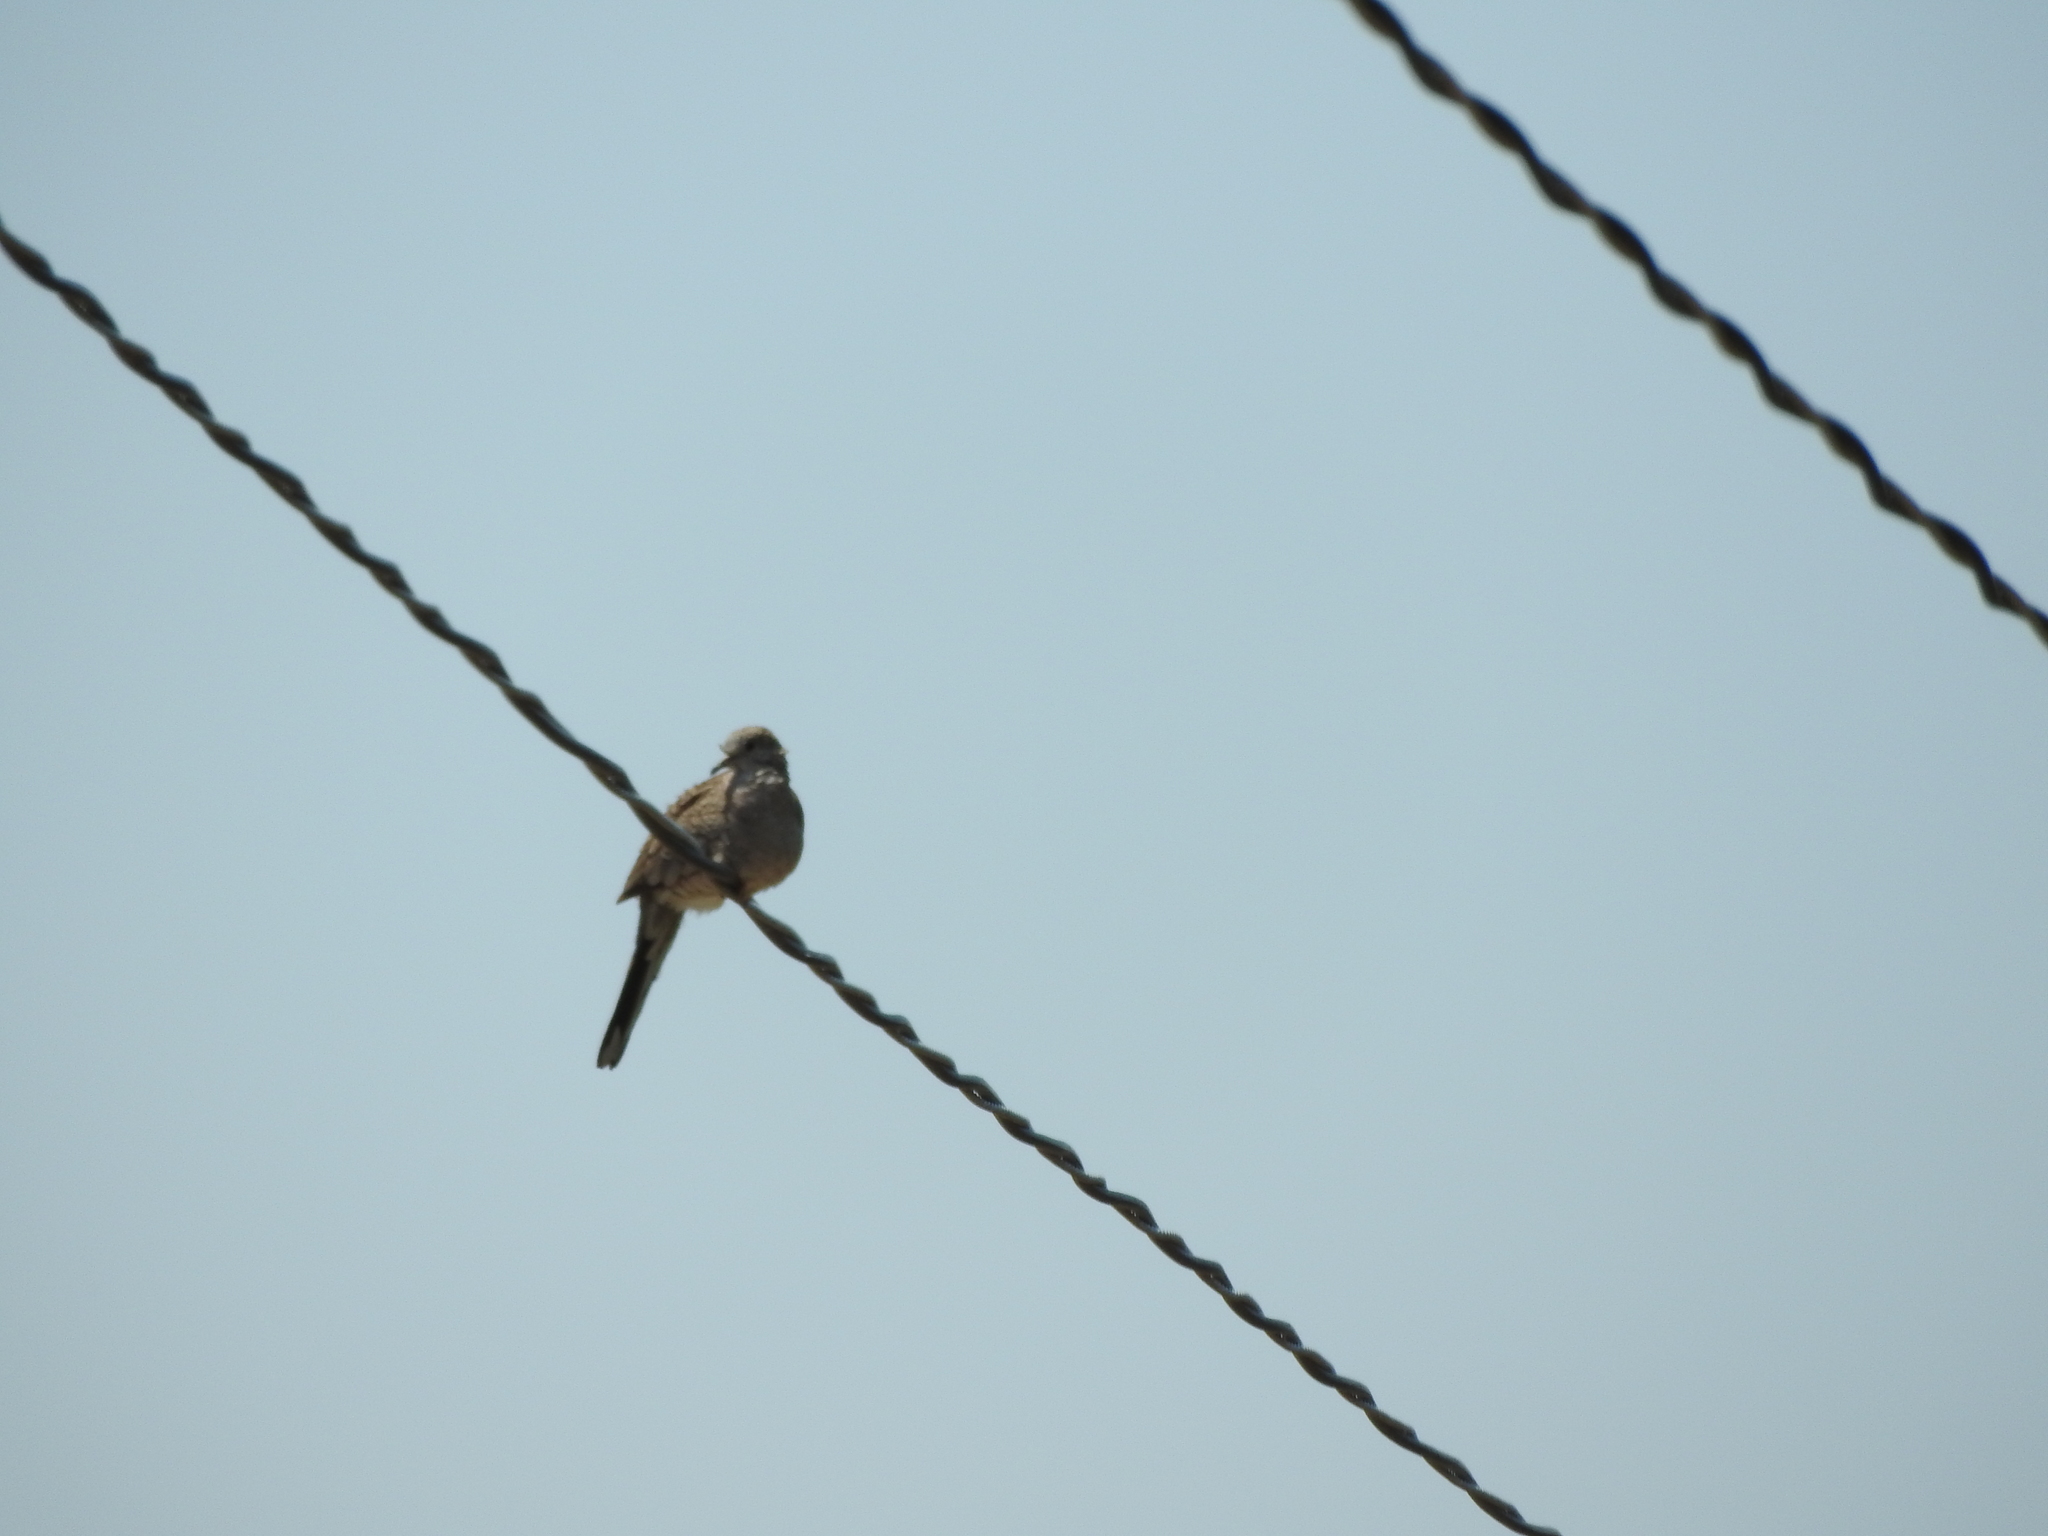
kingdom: Animalia
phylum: Chordata
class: Aves
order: Columbiformes
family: Columbidae
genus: Columbina
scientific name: Columbina inca
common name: Inca dove
